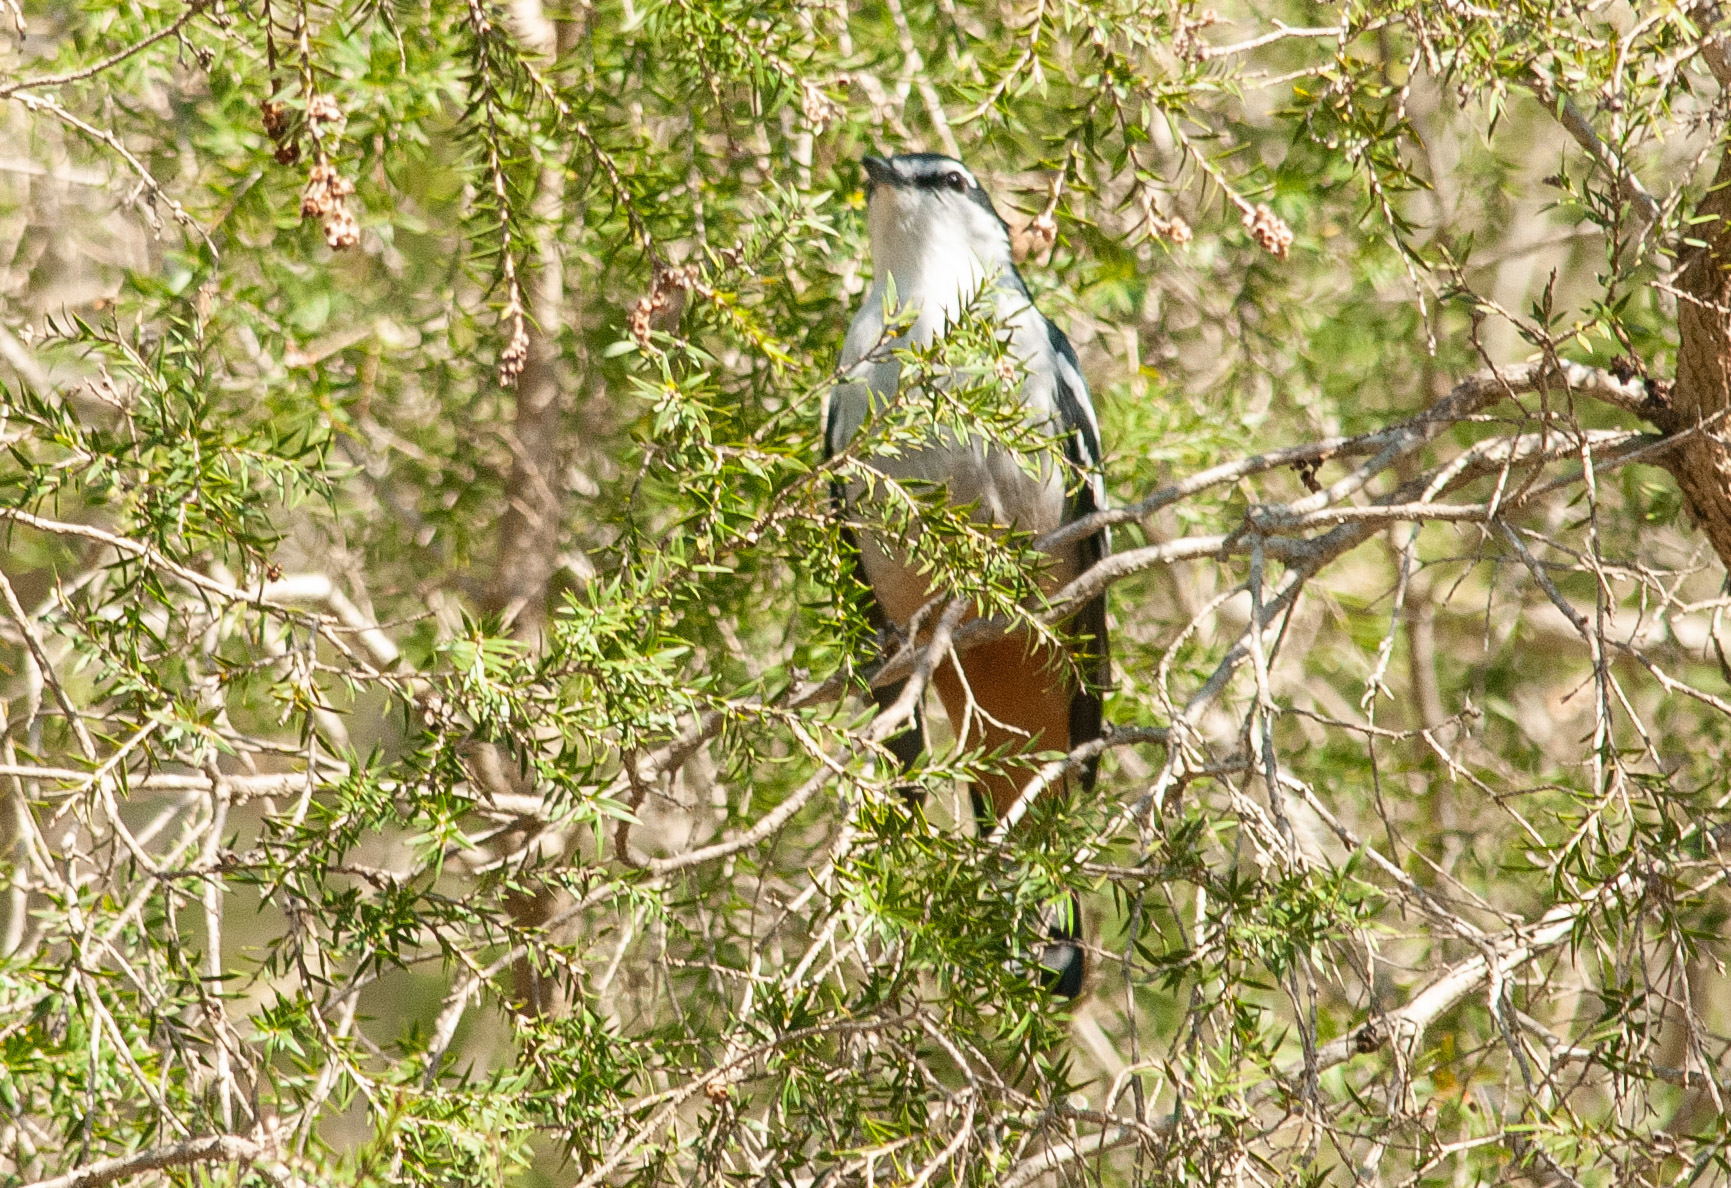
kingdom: Animalia
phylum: Chordata
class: Aves
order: Passeriformes
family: Campephagidae
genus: Lalage
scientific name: Lalage leucomela
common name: Varied triller
